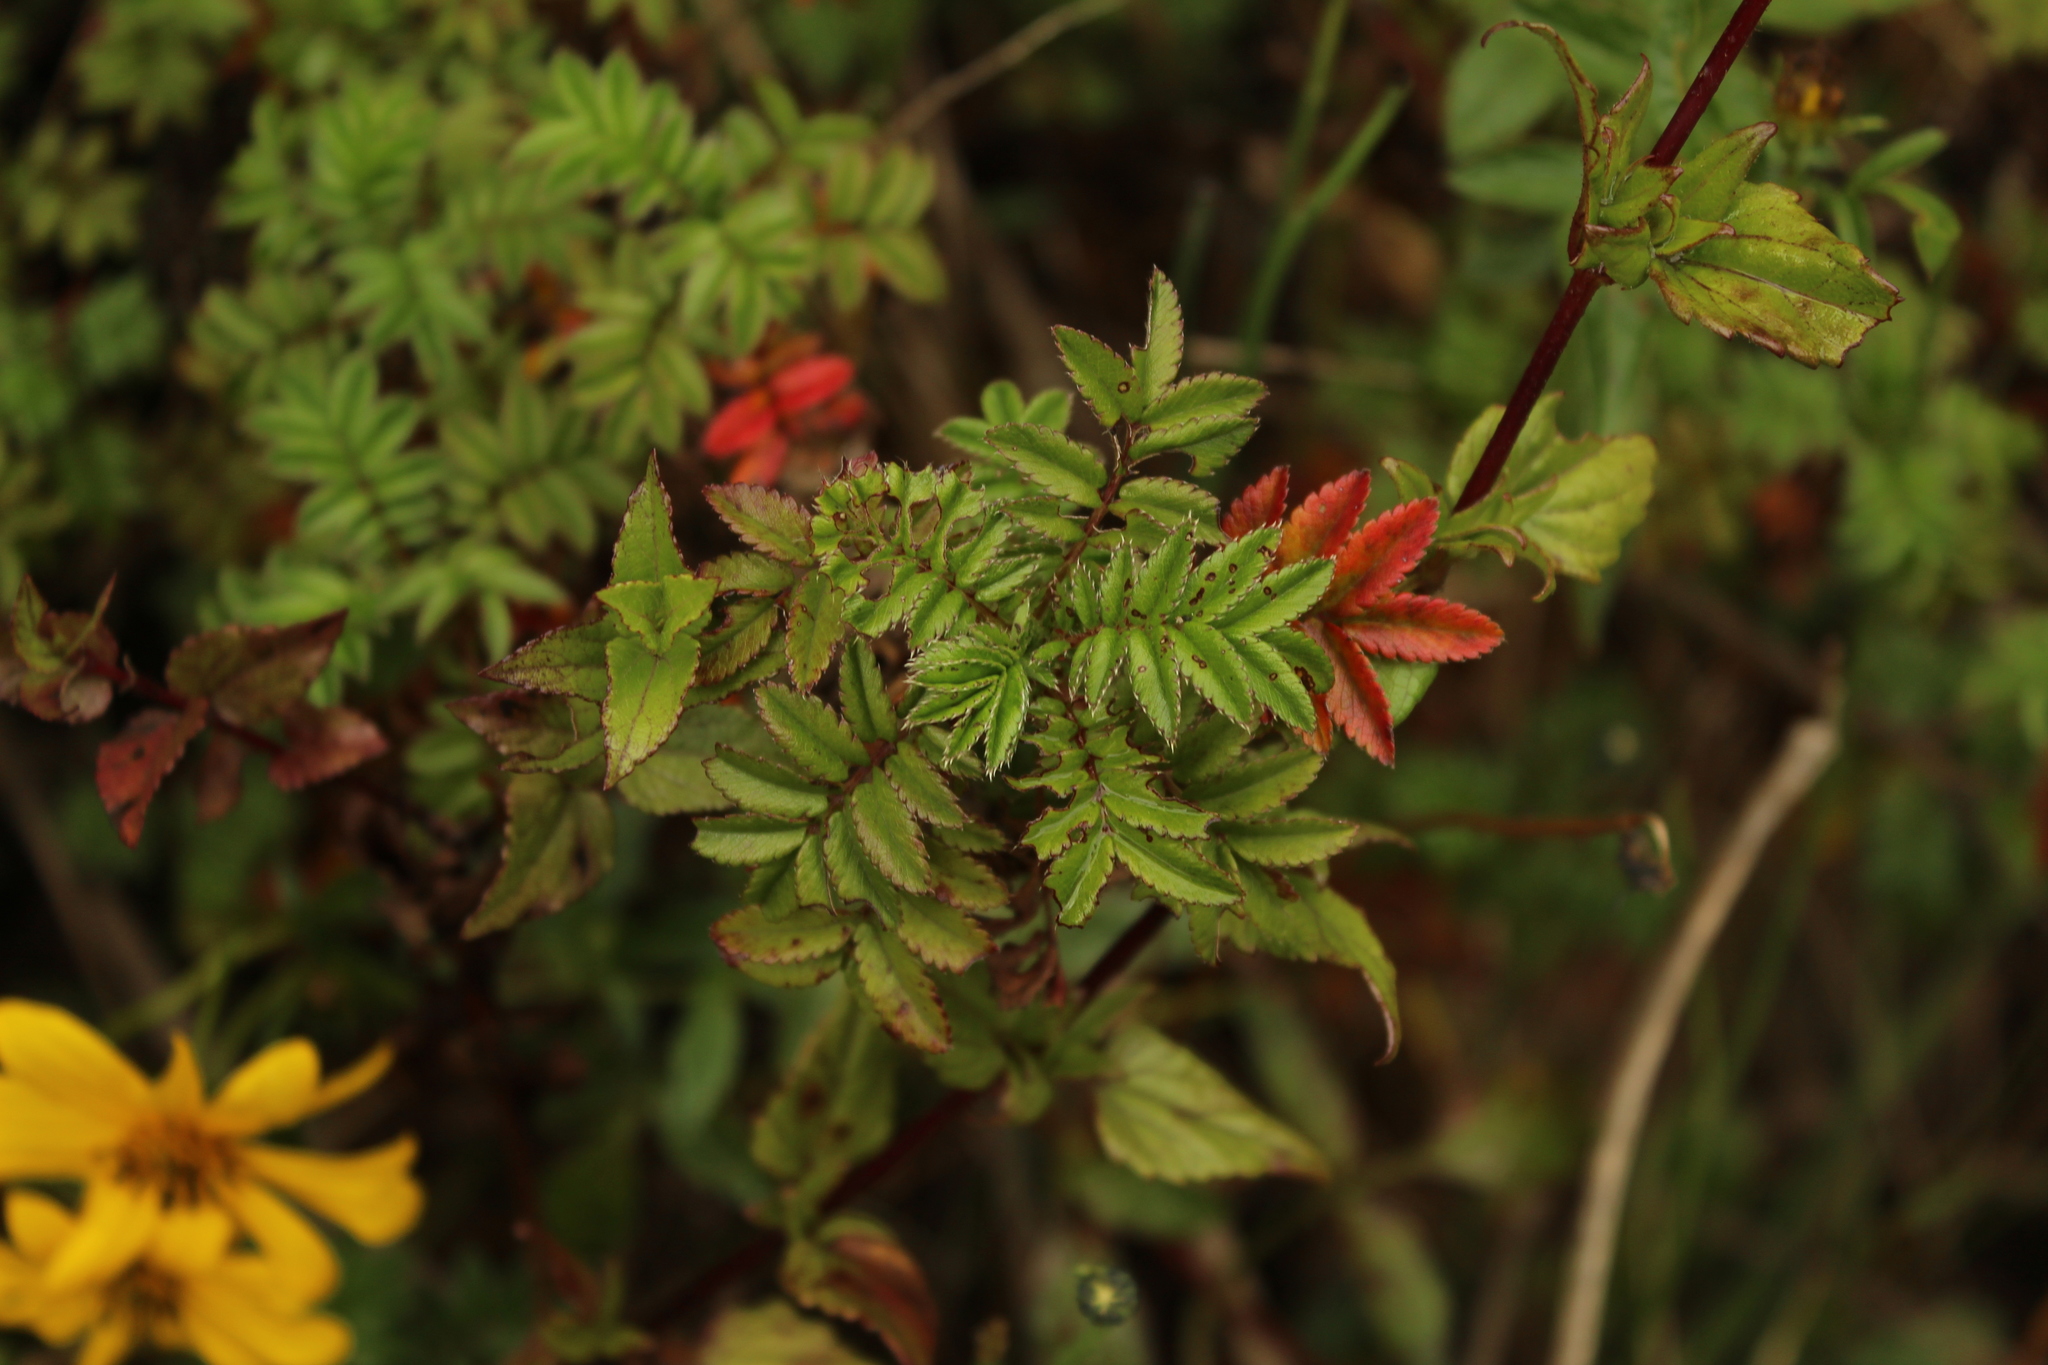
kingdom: Plantae
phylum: Tracheophyta
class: Magnoliopsida
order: Rosales
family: Rosaceae
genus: Acaena
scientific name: Acaena elongata
